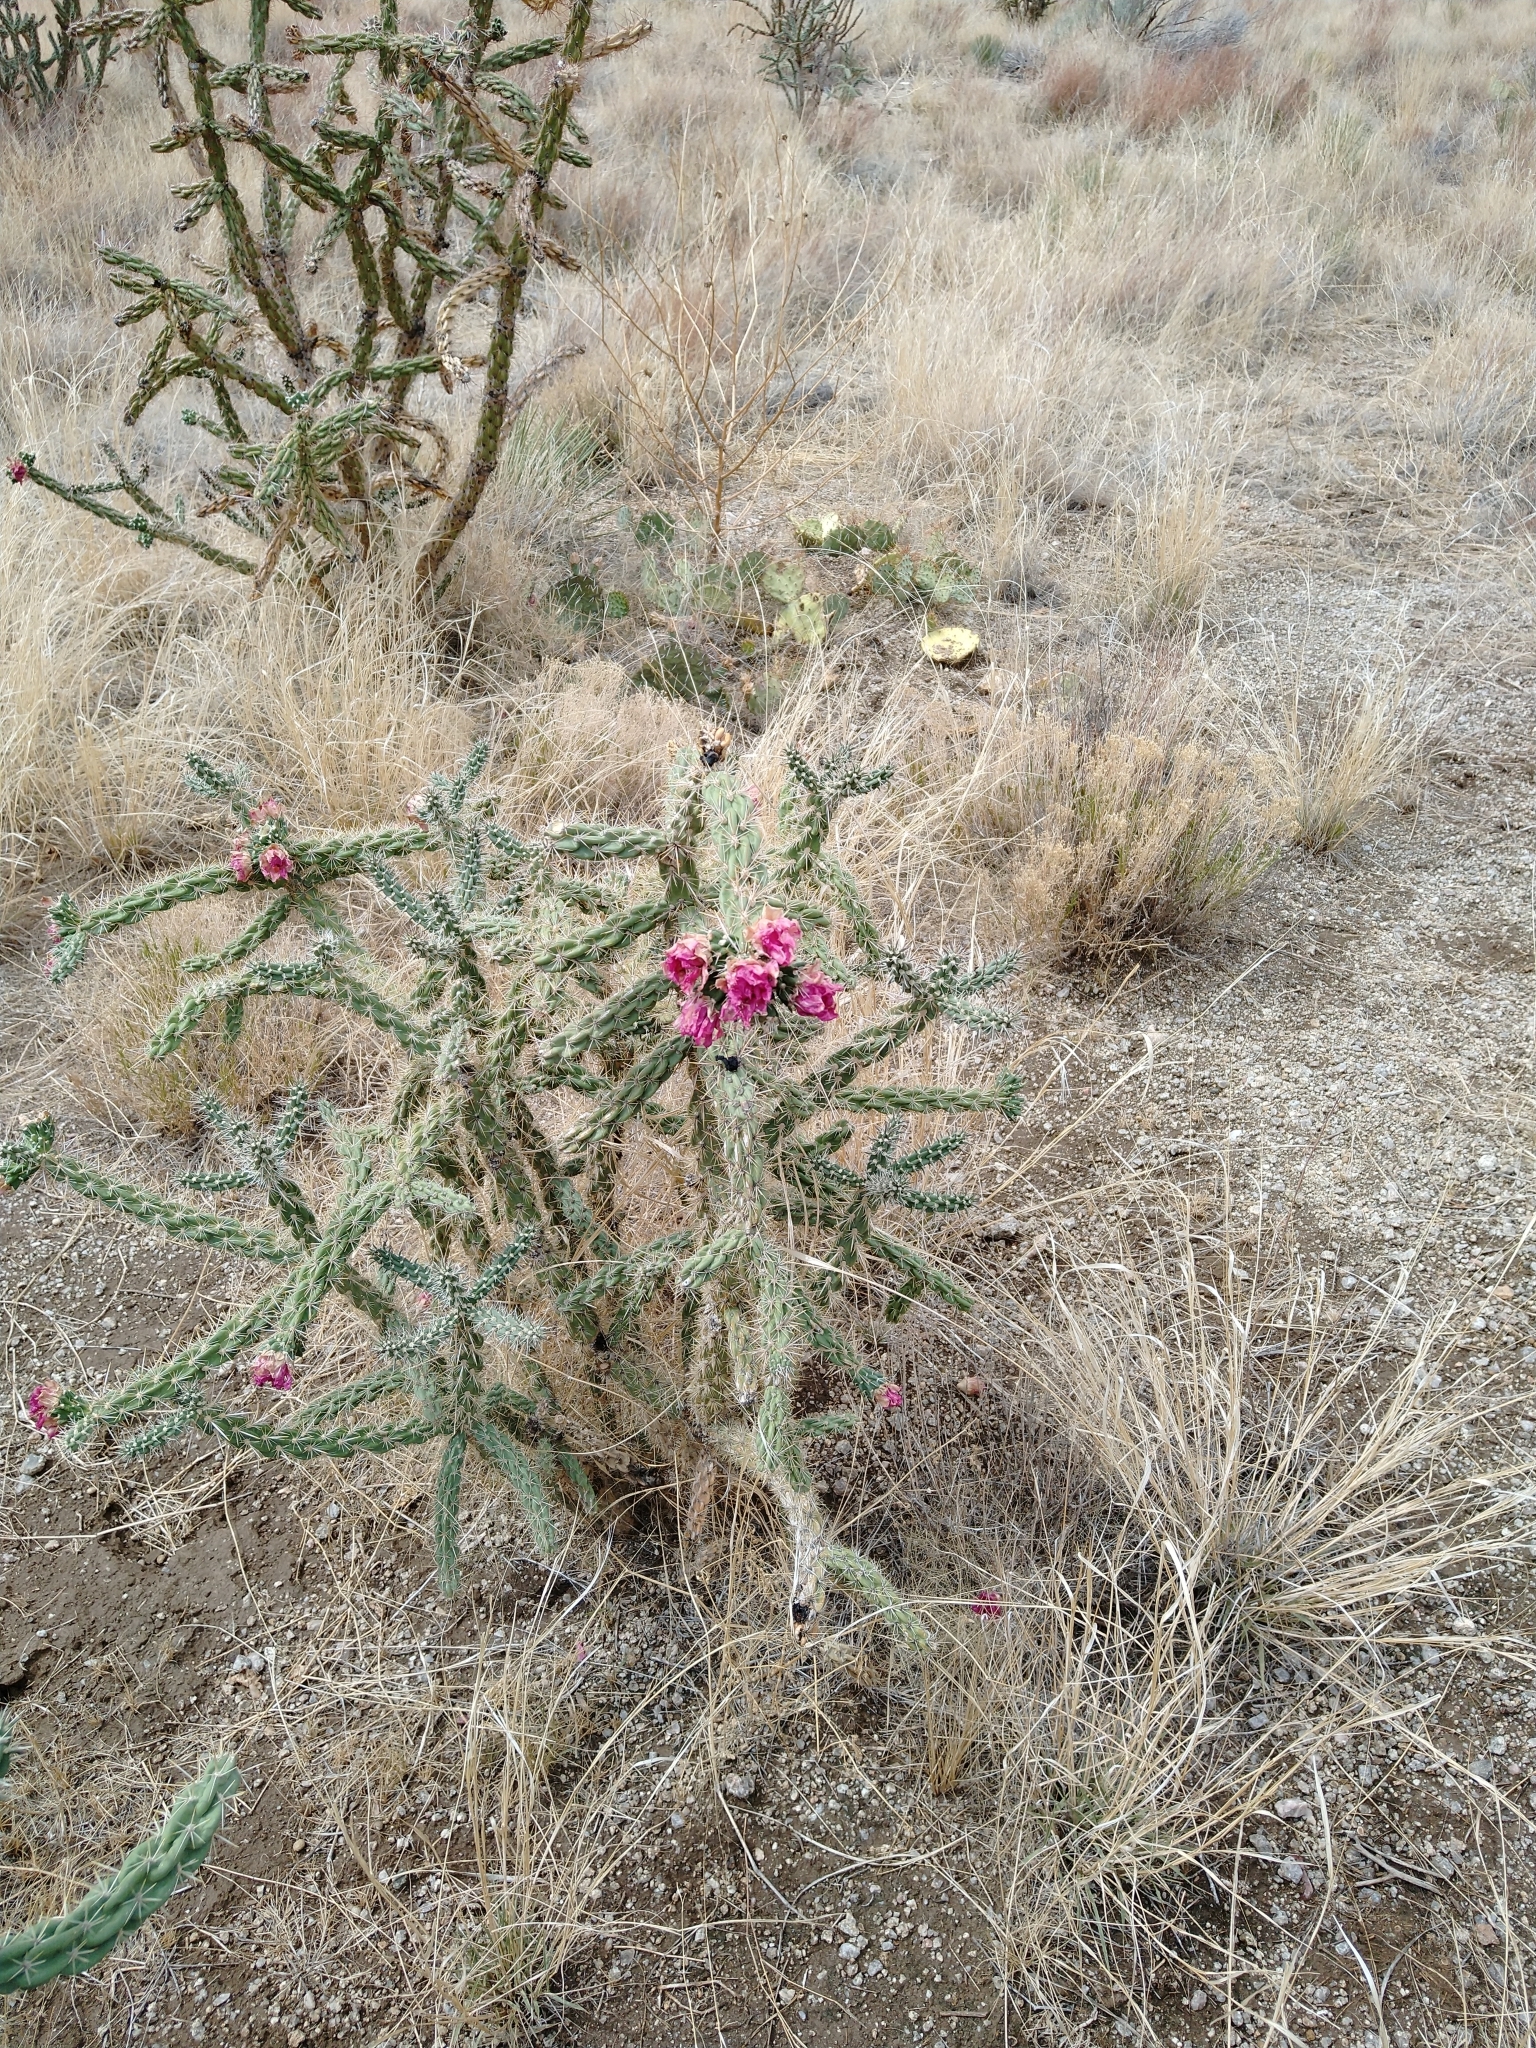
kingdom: Plantae
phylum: Tracheophyta
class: Magnoliopsida
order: Caryophyllales
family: Cactaceae
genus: Cylindropuntia
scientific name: Cylindropuntia imbricata
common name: Candelabrum cactus
